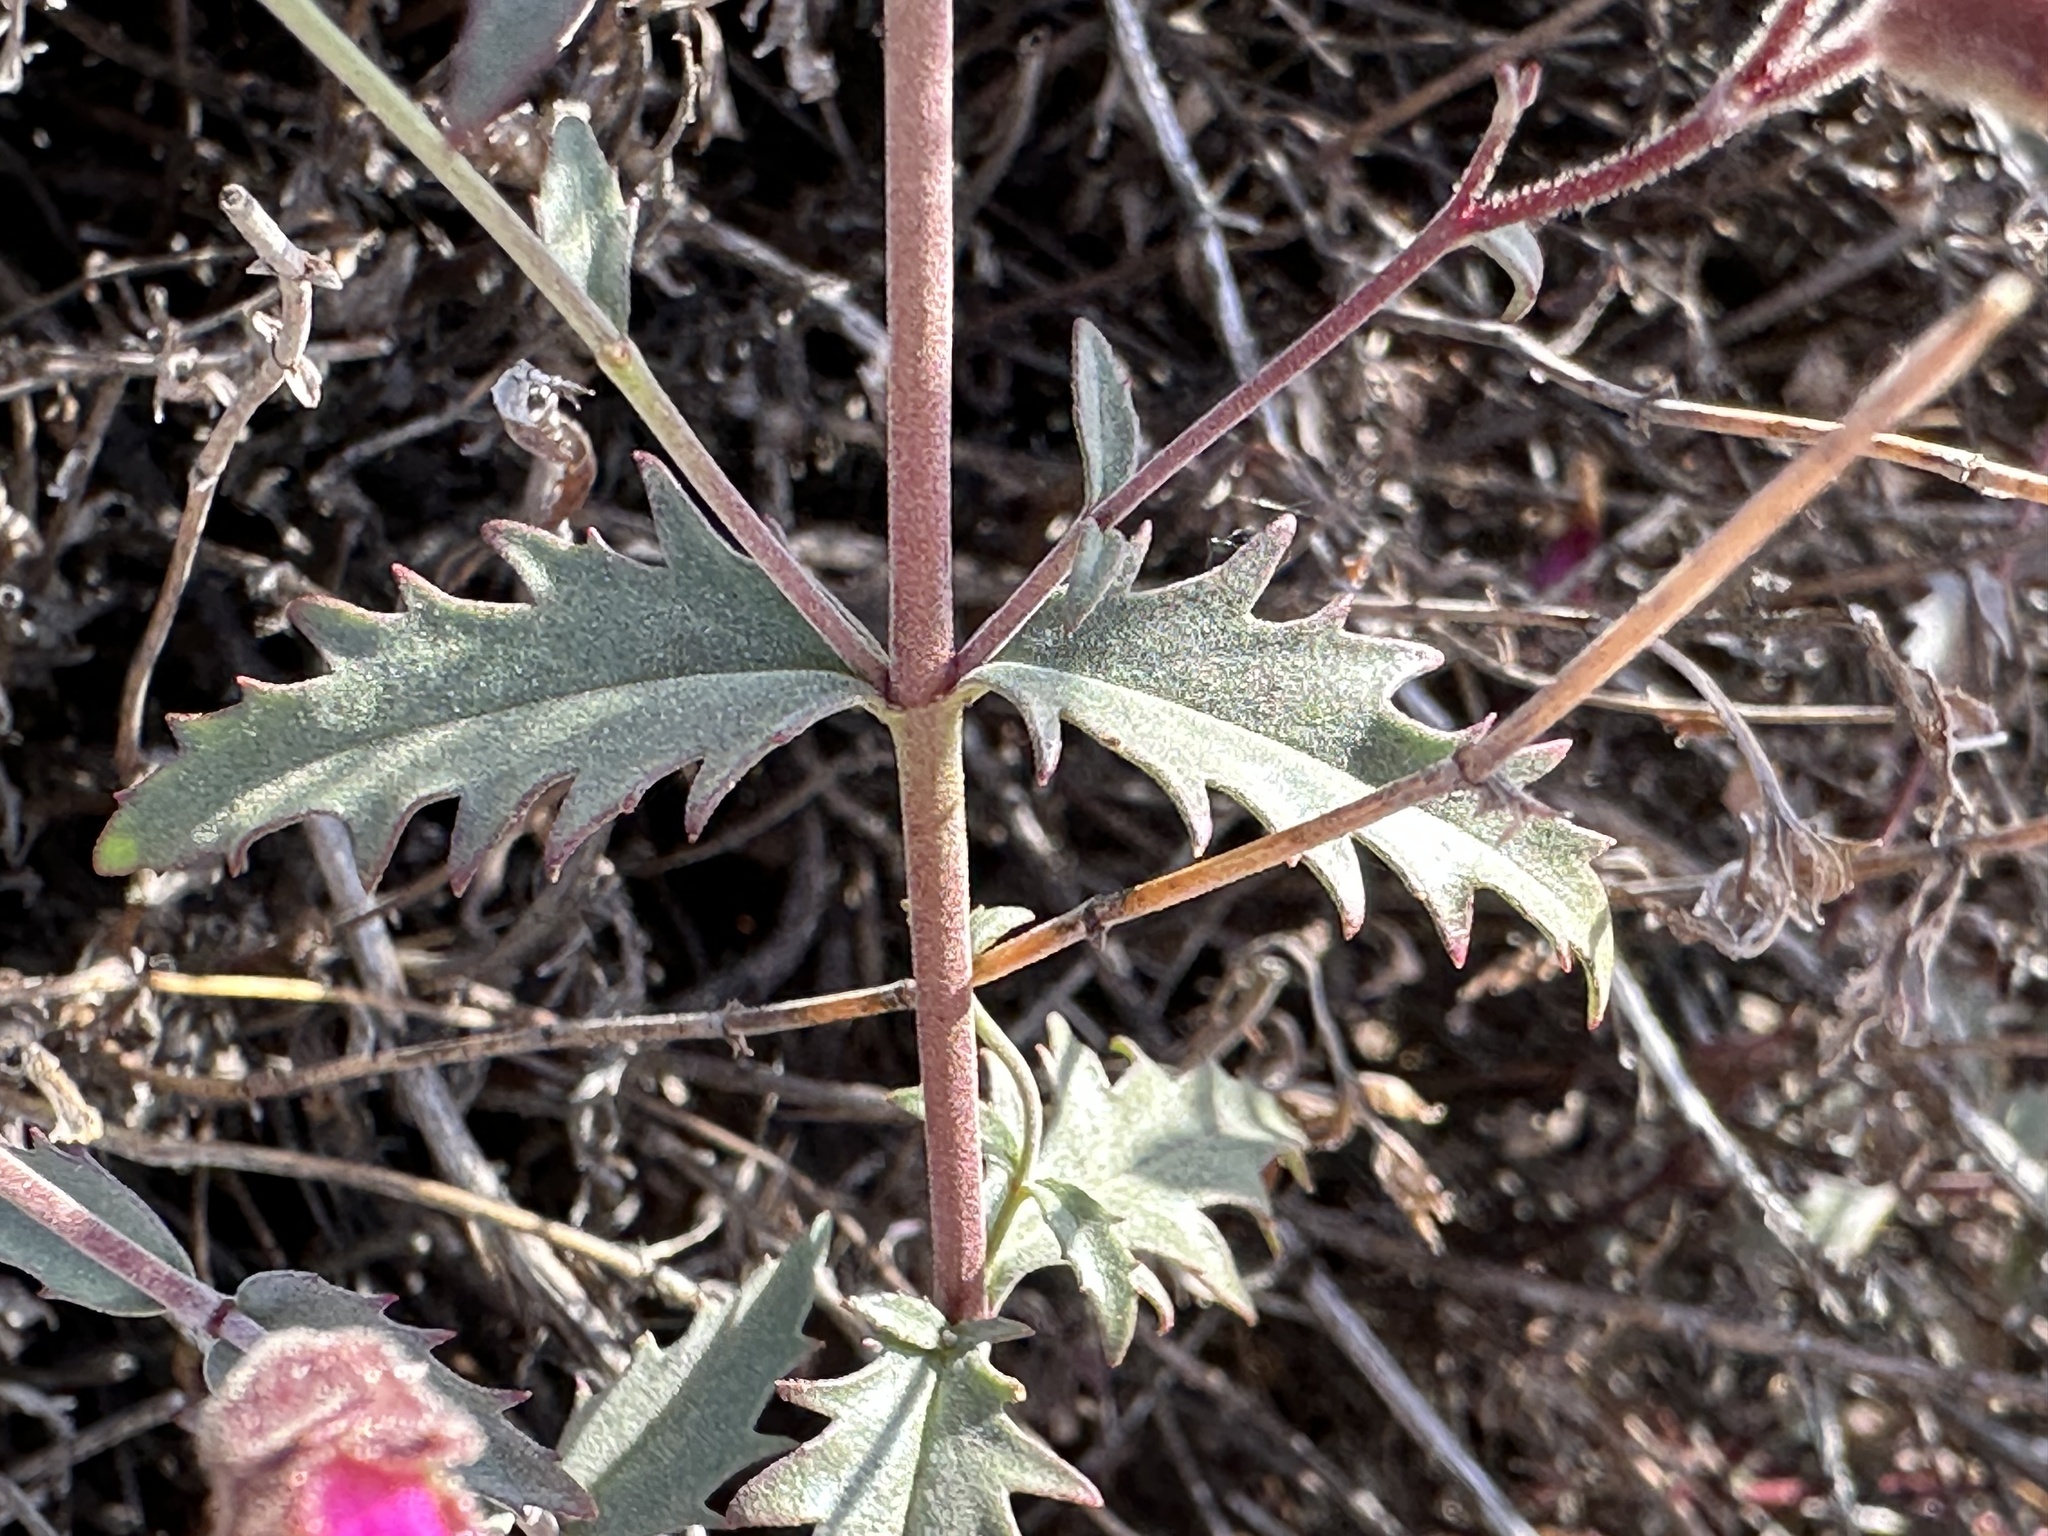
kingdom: Plantae
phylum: Tracheophyta
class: Magnoliopsida
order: Lamiales
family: Plantaginaceae
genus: Penstemon
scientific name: Penstemon richardsonii
